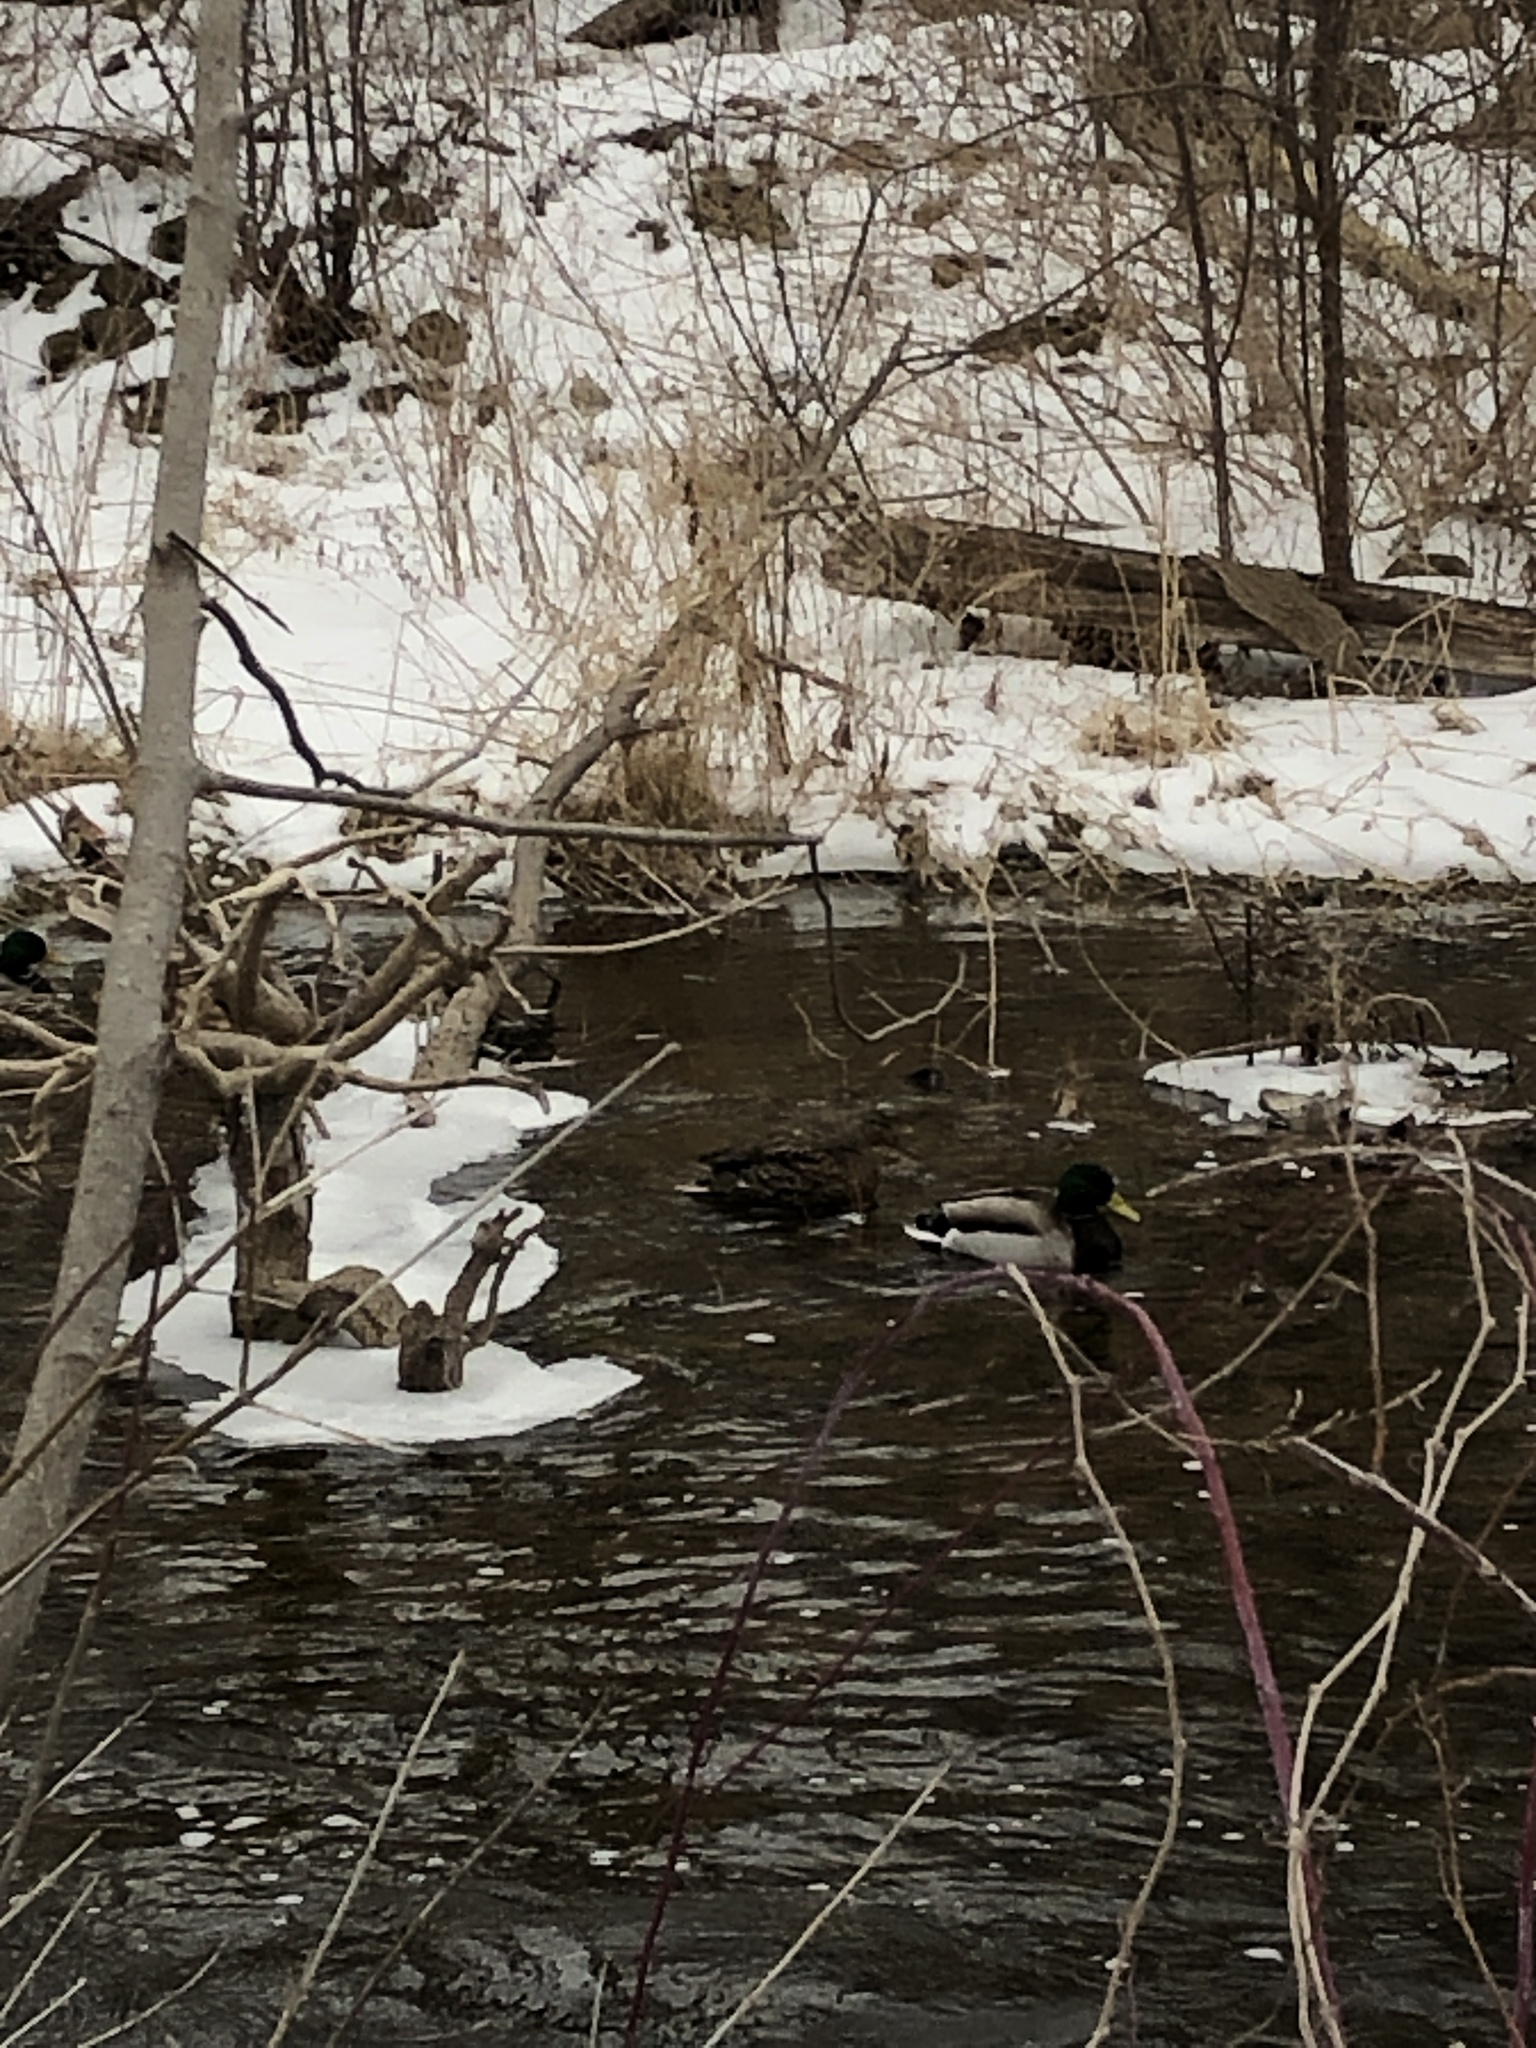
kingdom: Animalia
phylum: Chordata
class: Aves
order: Anseriformes
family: Anatidae
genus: Anas
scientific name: Anas platyrhynchos
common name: Mallard
